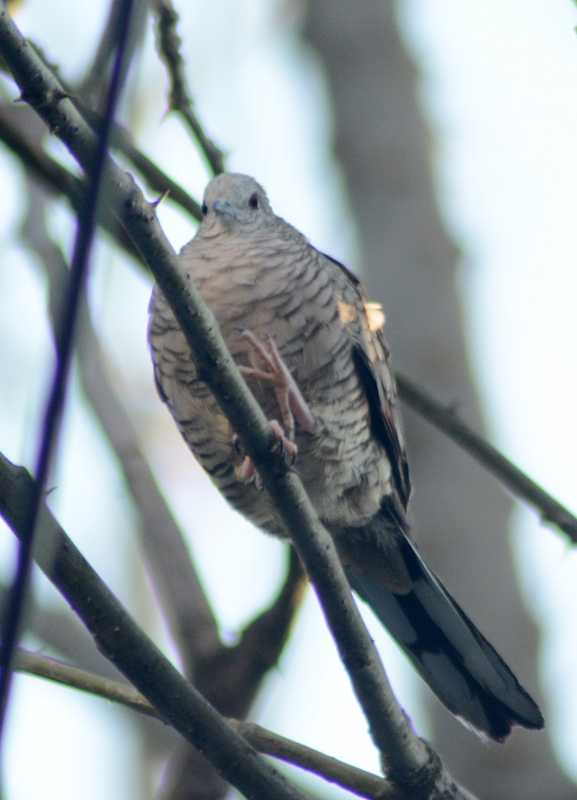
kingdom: Animalia
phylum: Chordata
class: Aves
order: Columbiformes
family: Columbidae
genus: Columbina
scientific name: Columbina inca
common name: Inca dove
